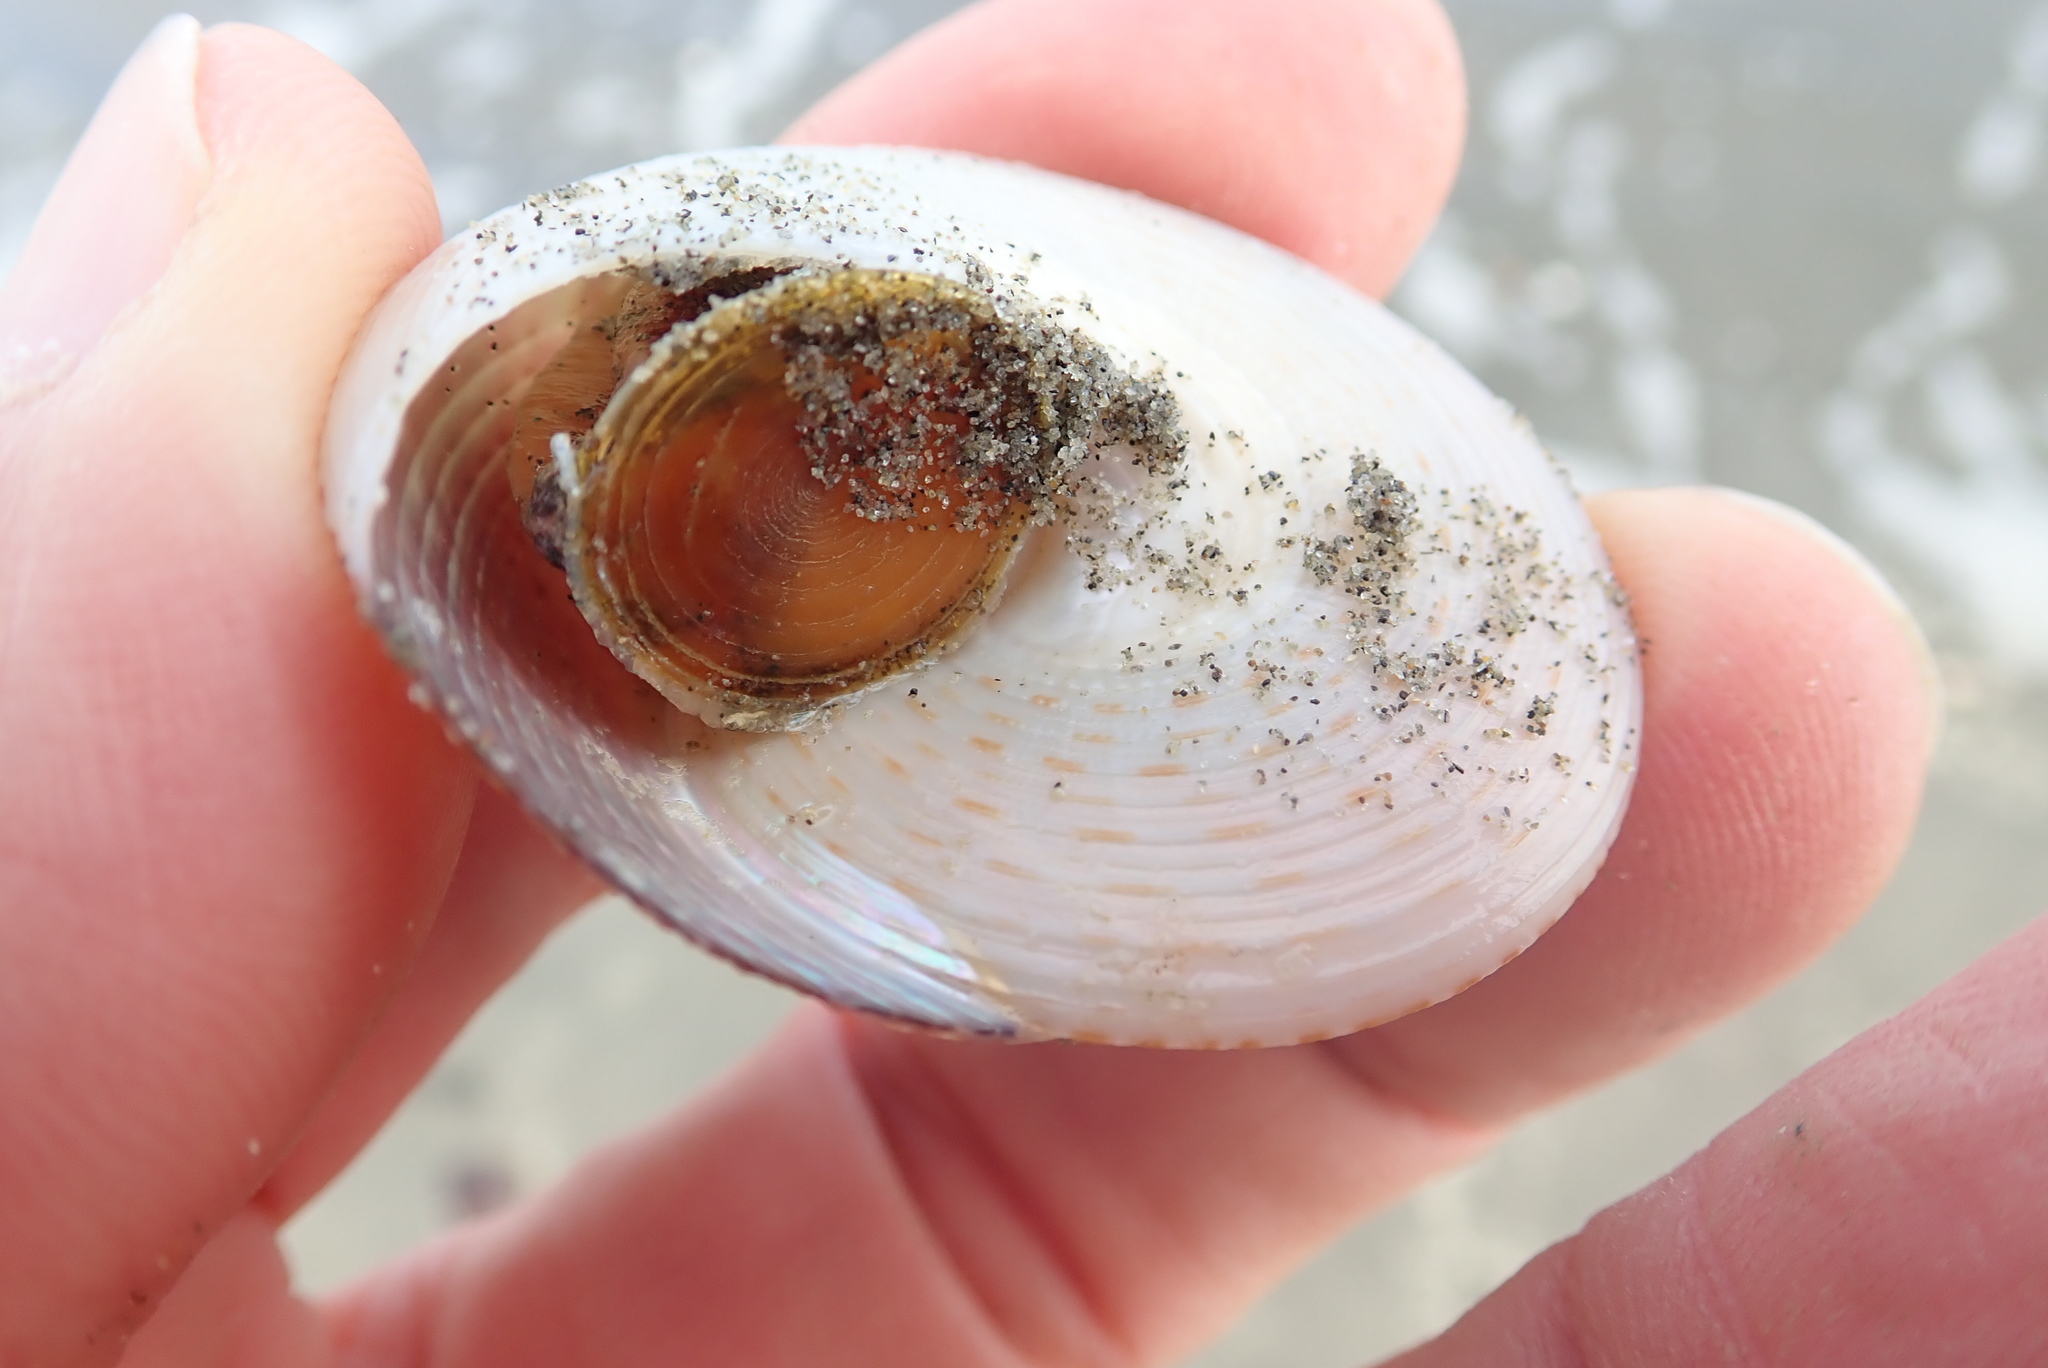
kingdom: Animalia
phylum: Mollusca
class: Gastropoda
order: Trochida
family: Calliostomatidae
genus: Maurea
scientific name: Maurea selecta
